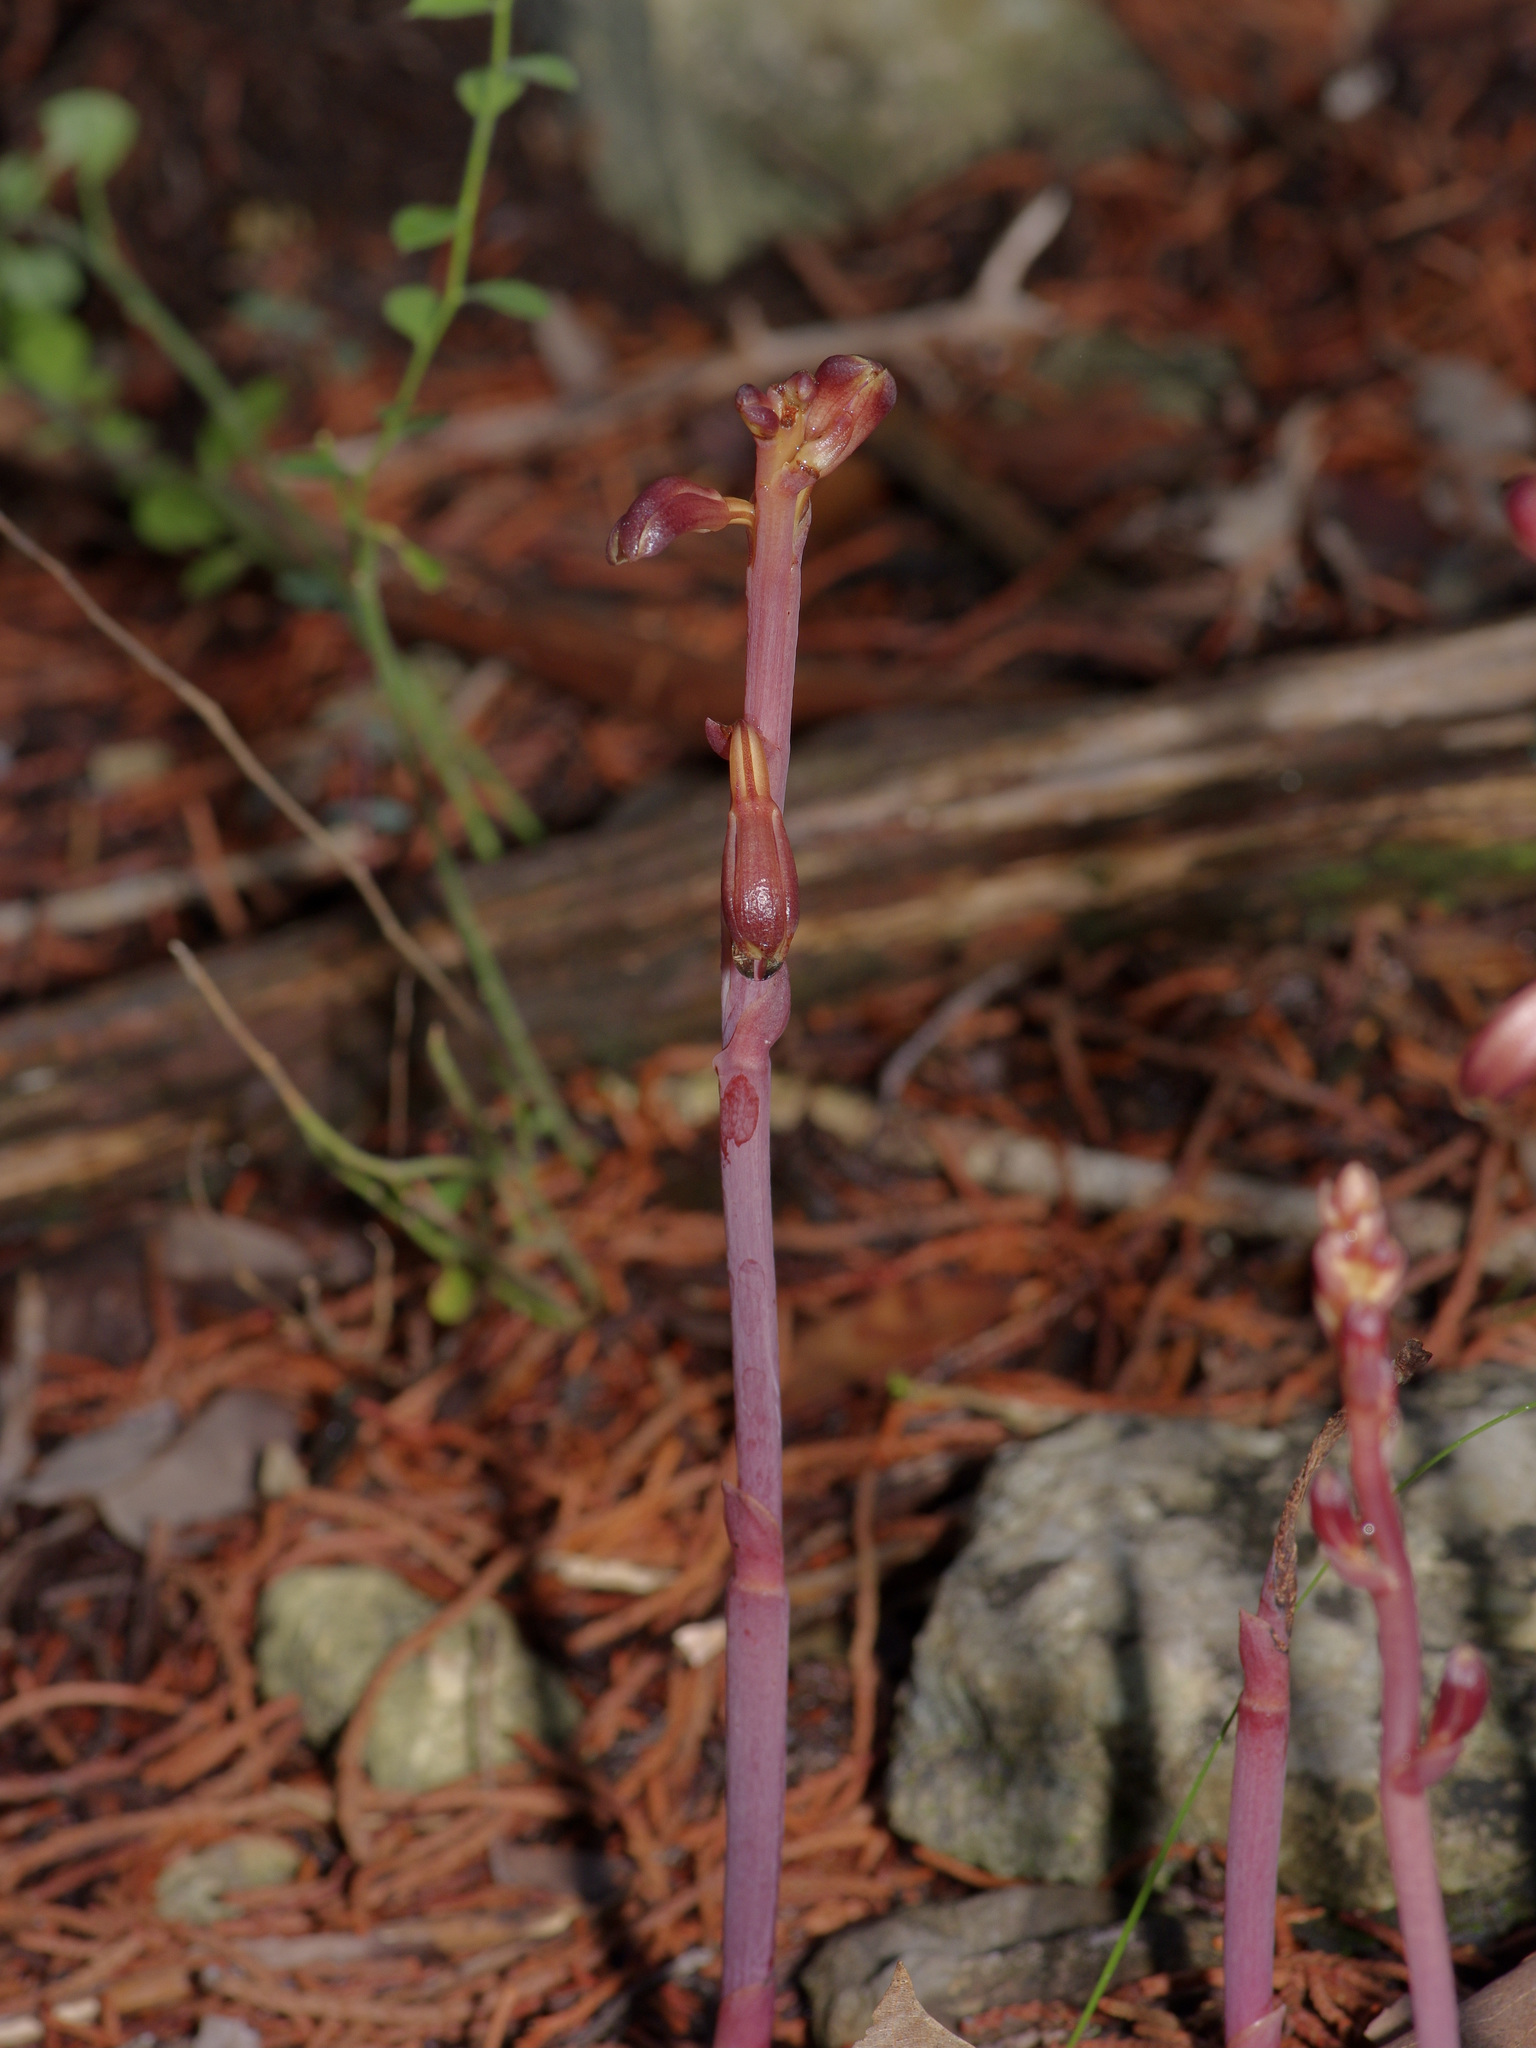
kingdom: Plantae
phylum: Tracheophyta
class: Liliopsida
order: Asparagales
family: Orchidaceae
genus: Bletia
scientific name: Bletia nitida
